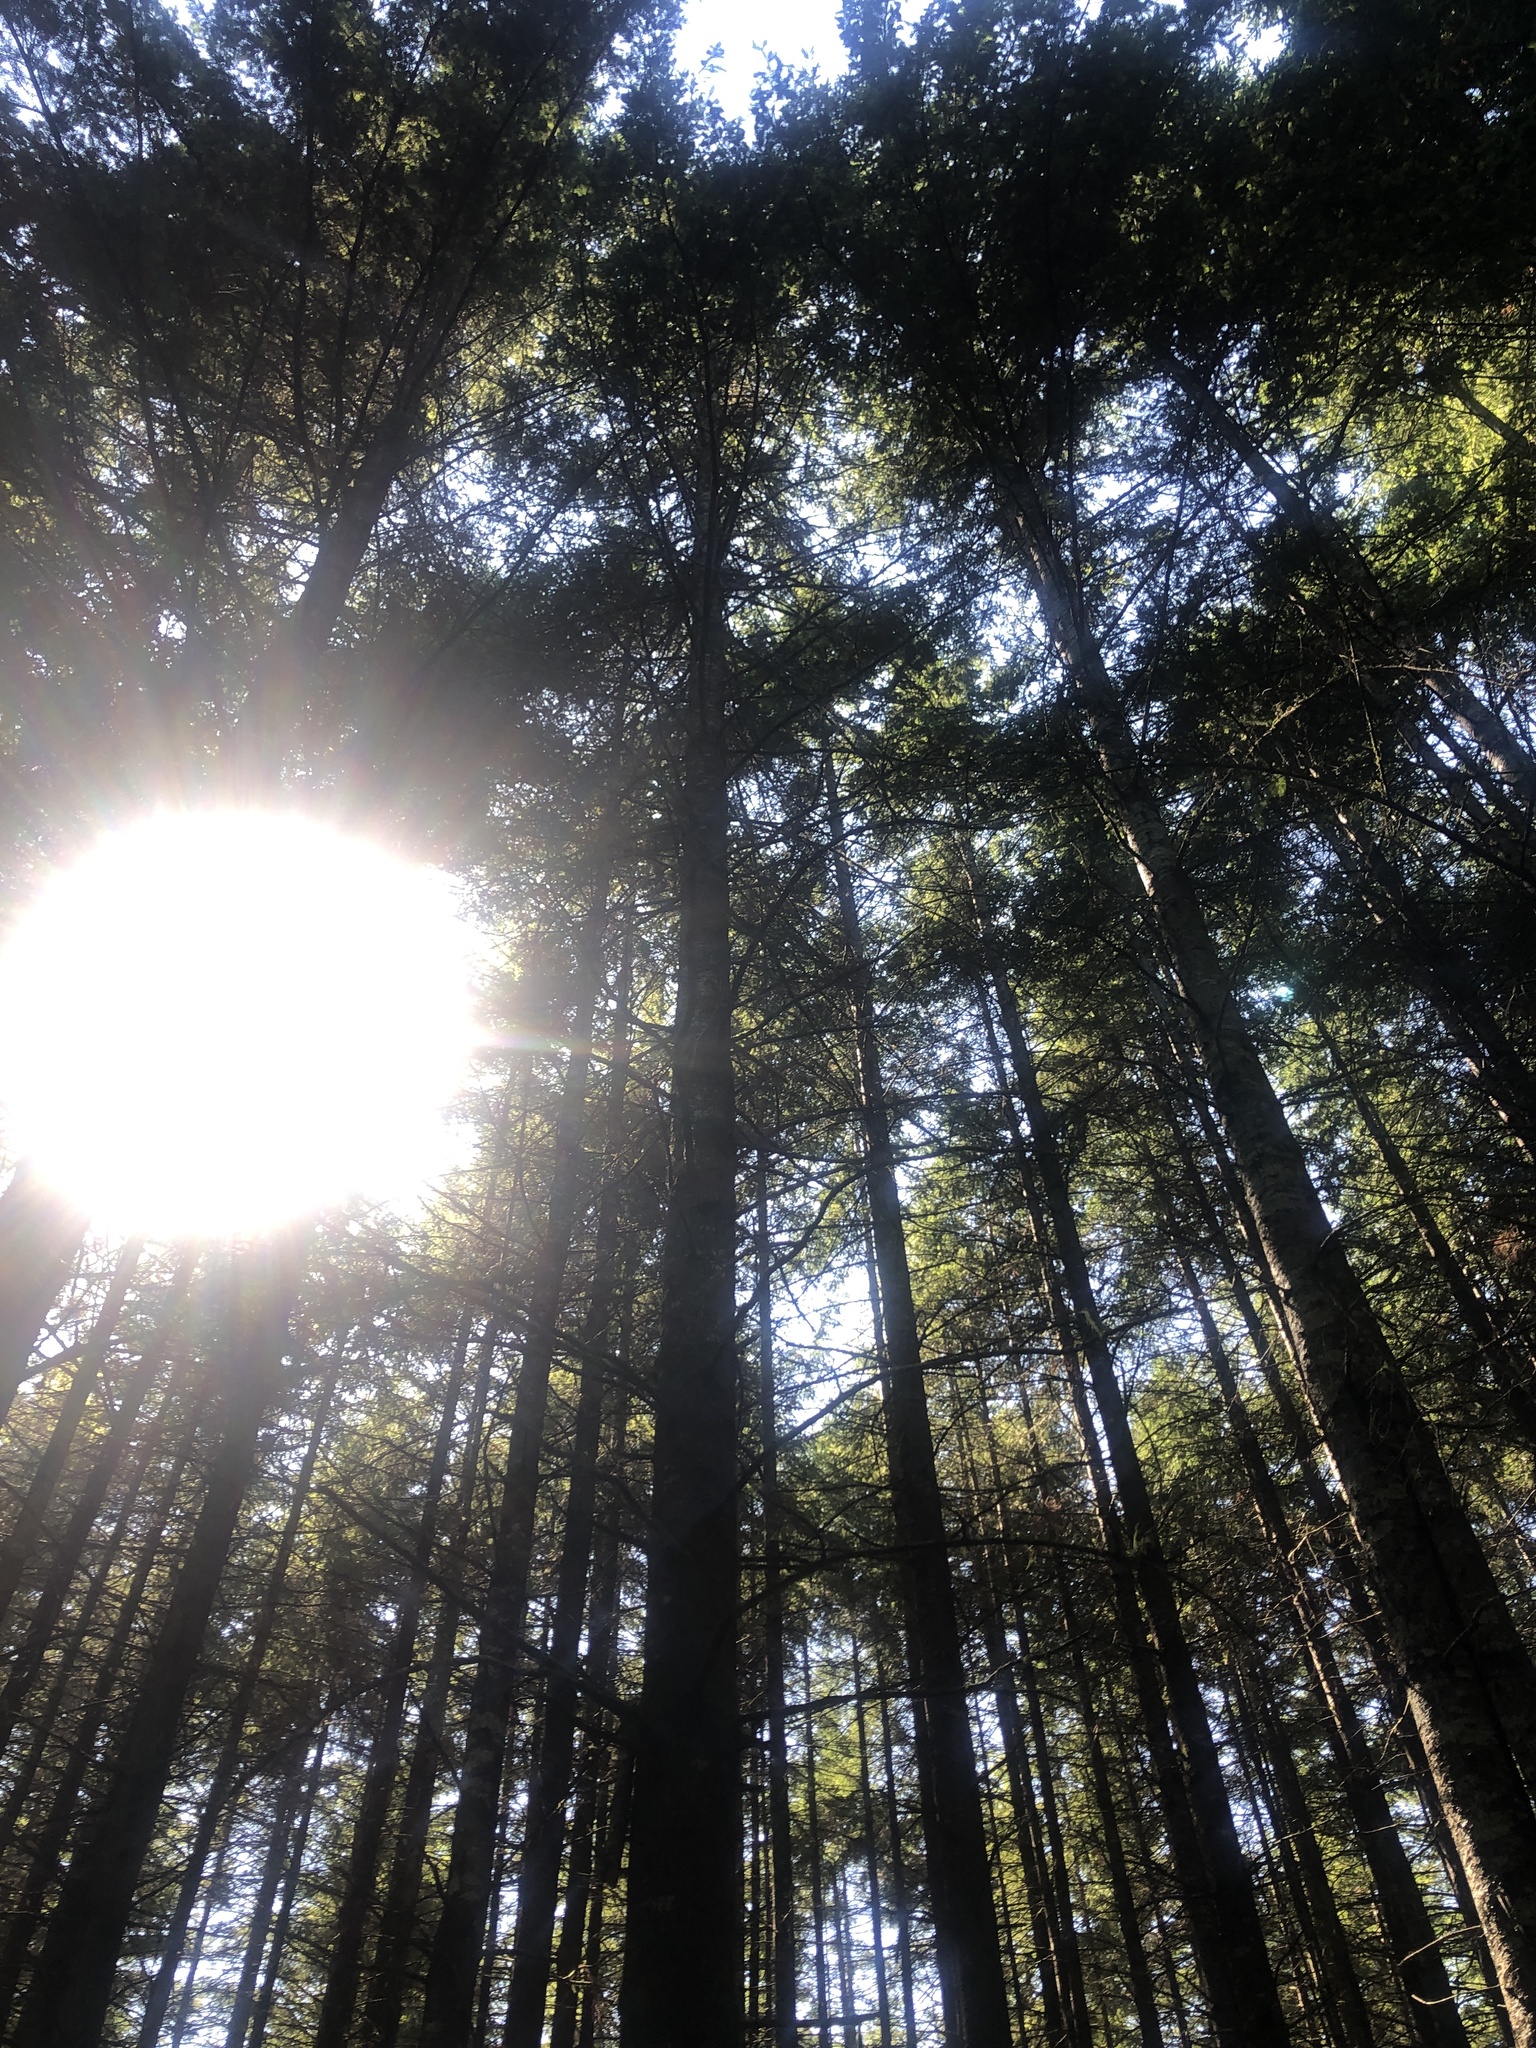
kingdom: Plantae
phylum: Tracheophyta
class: Pinopsida
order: Pinales
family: Pinaceae
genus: Pseudotsuga
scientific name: Pseudotsuga menziesii
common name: Douglas fir
